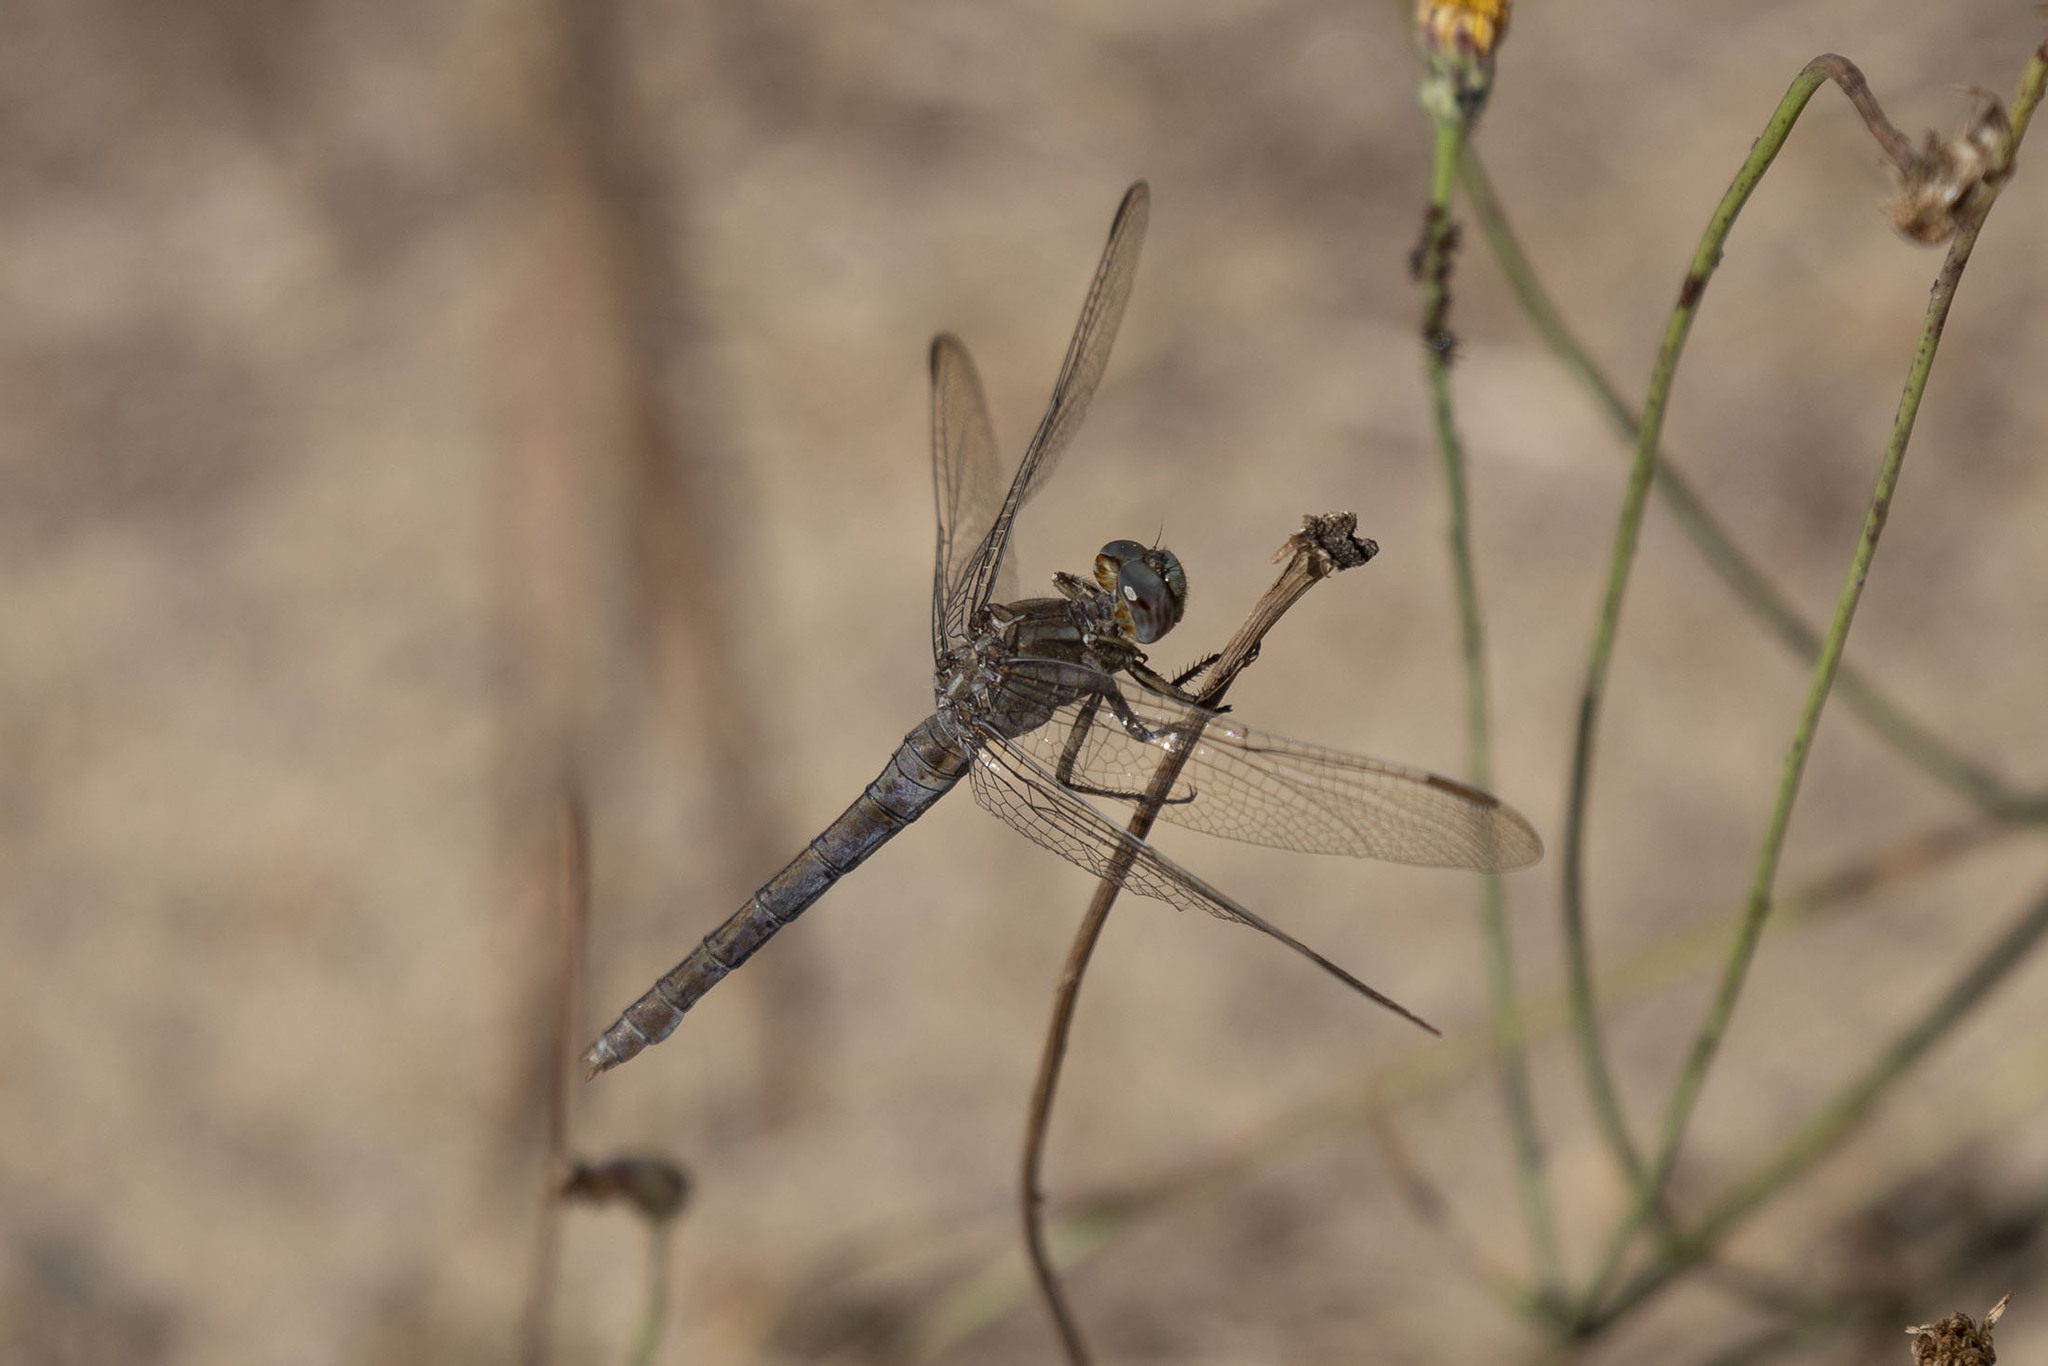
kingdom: Animalia
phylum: Arthropoda
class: Insecta
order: Odonata
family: Libellulidae
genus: Orthetrum
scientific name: Orthetrum coerulescens
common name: Keeled skimmer
